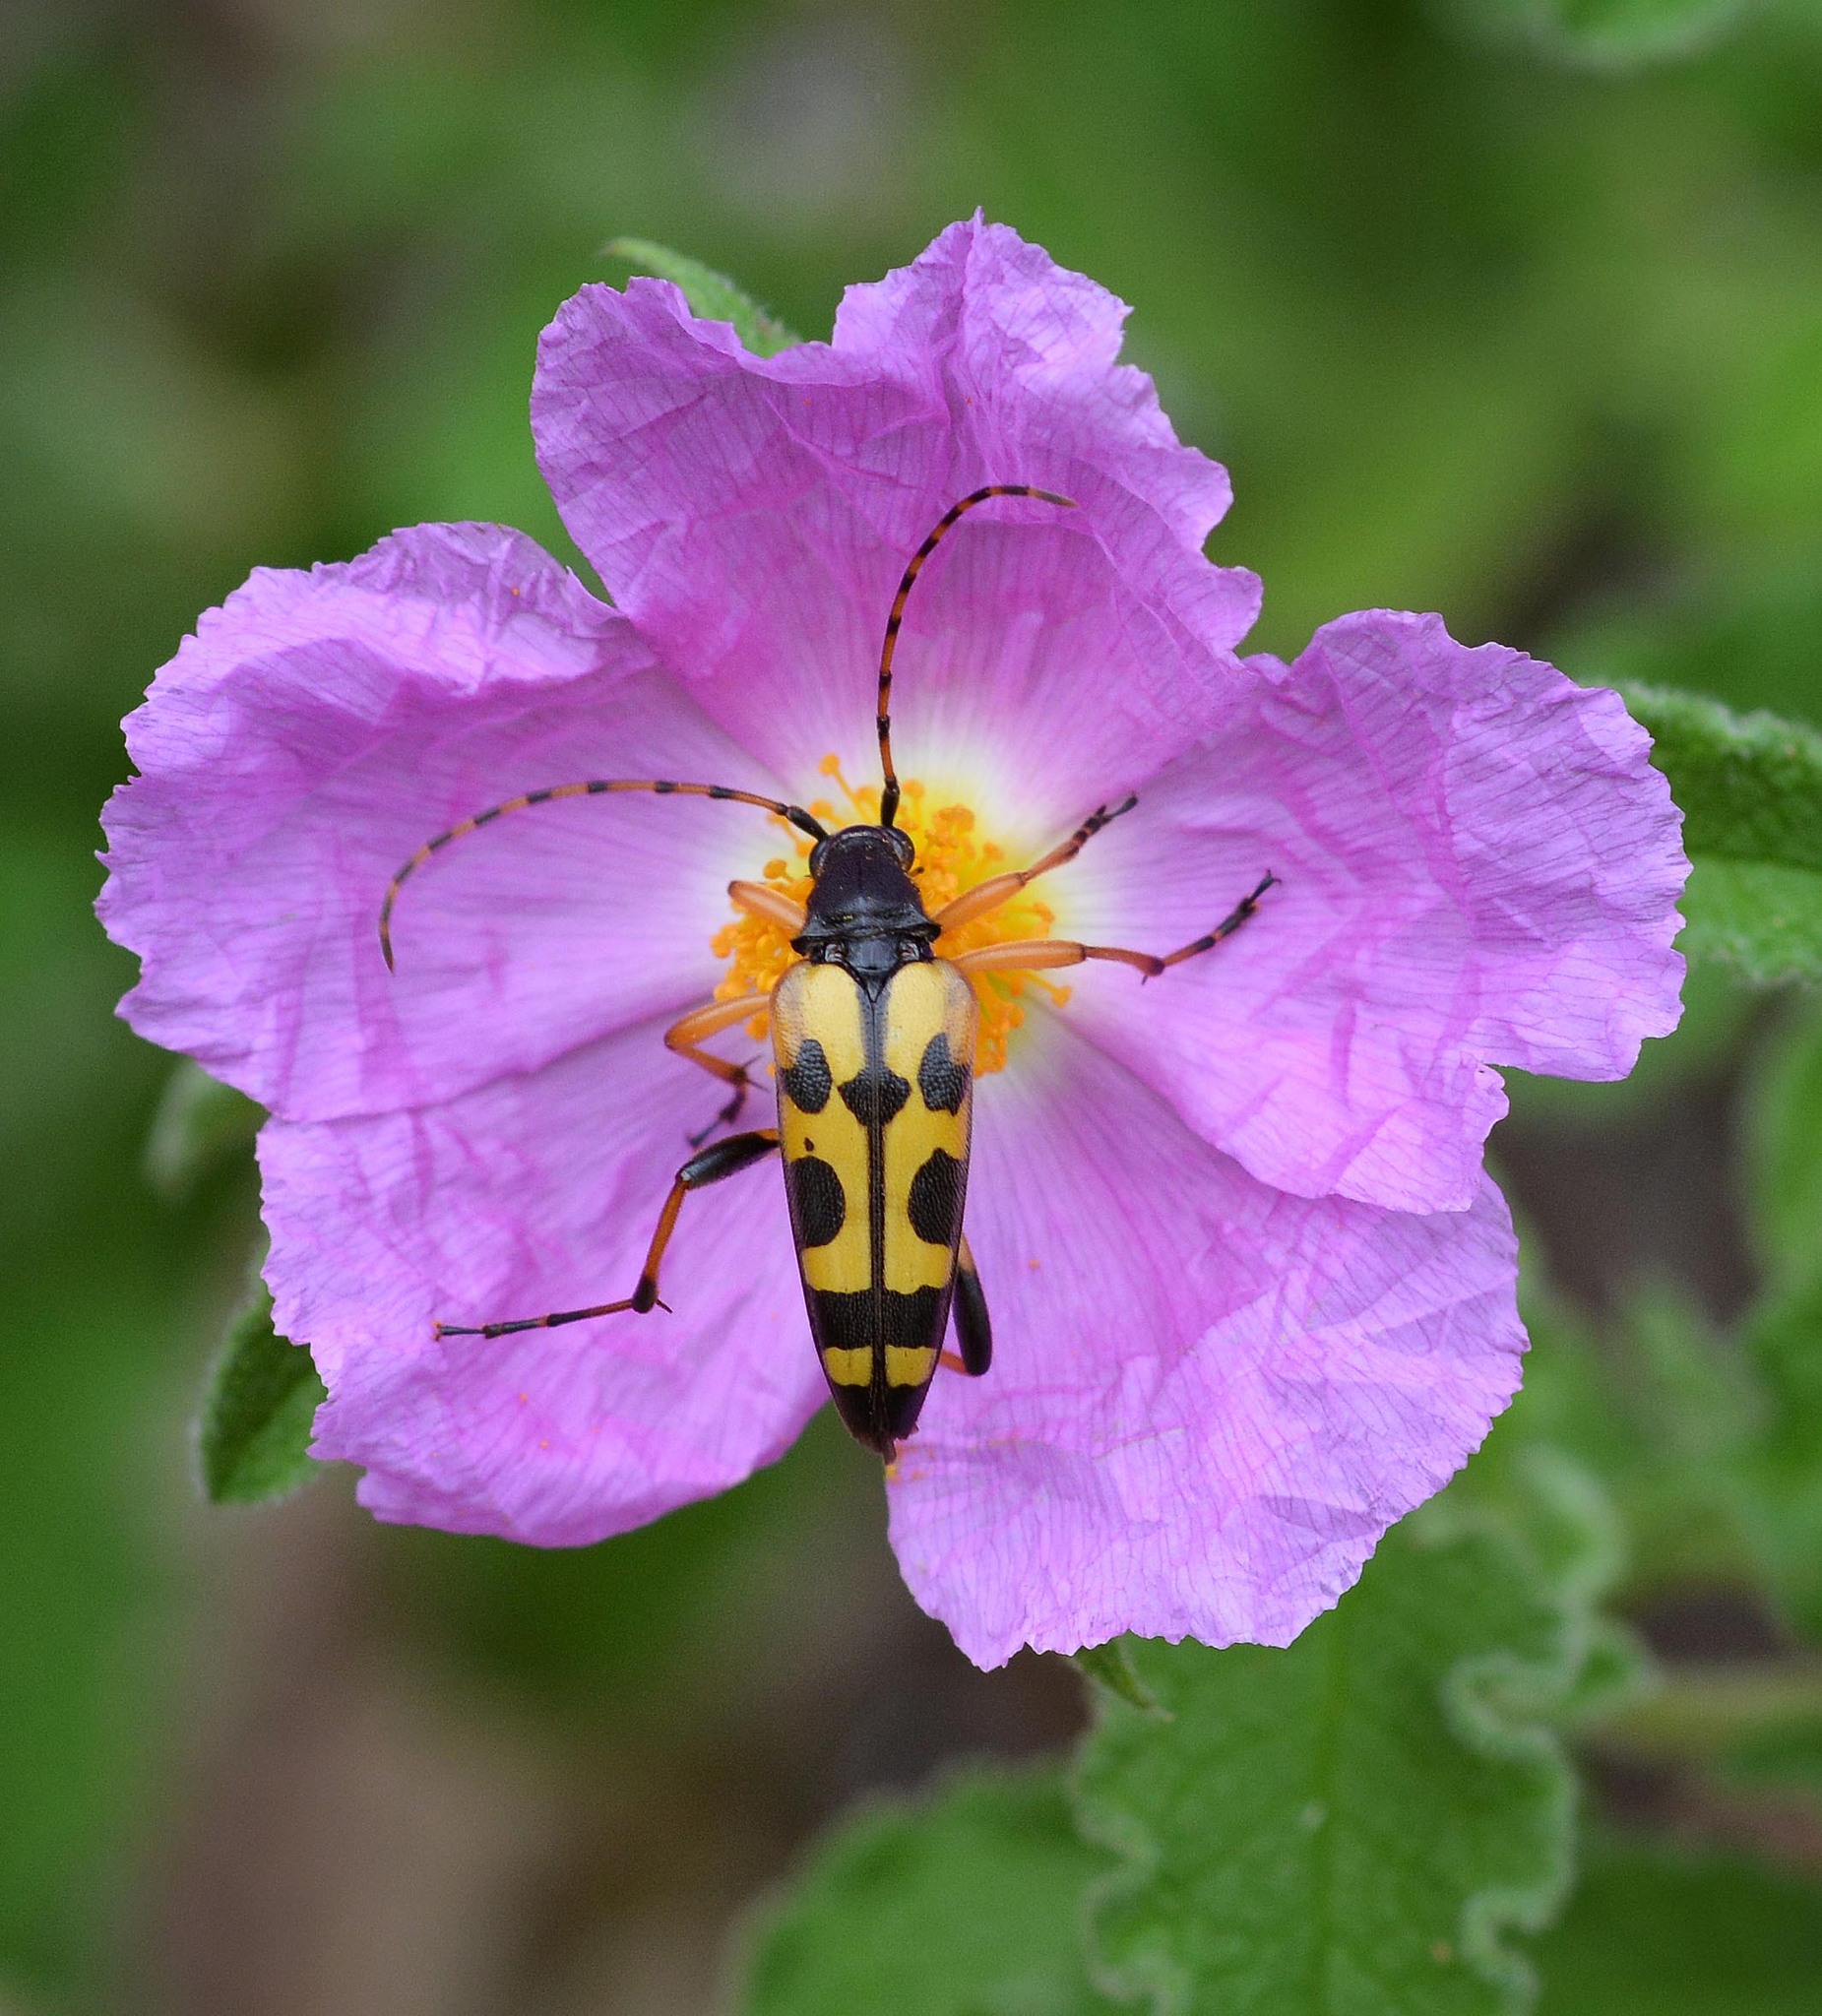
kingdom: Animalia
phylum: Arthropoda
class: Insecta
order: Coleoptera
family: Cerambycidae
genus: Rutpela
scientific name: Rutpela maculata
